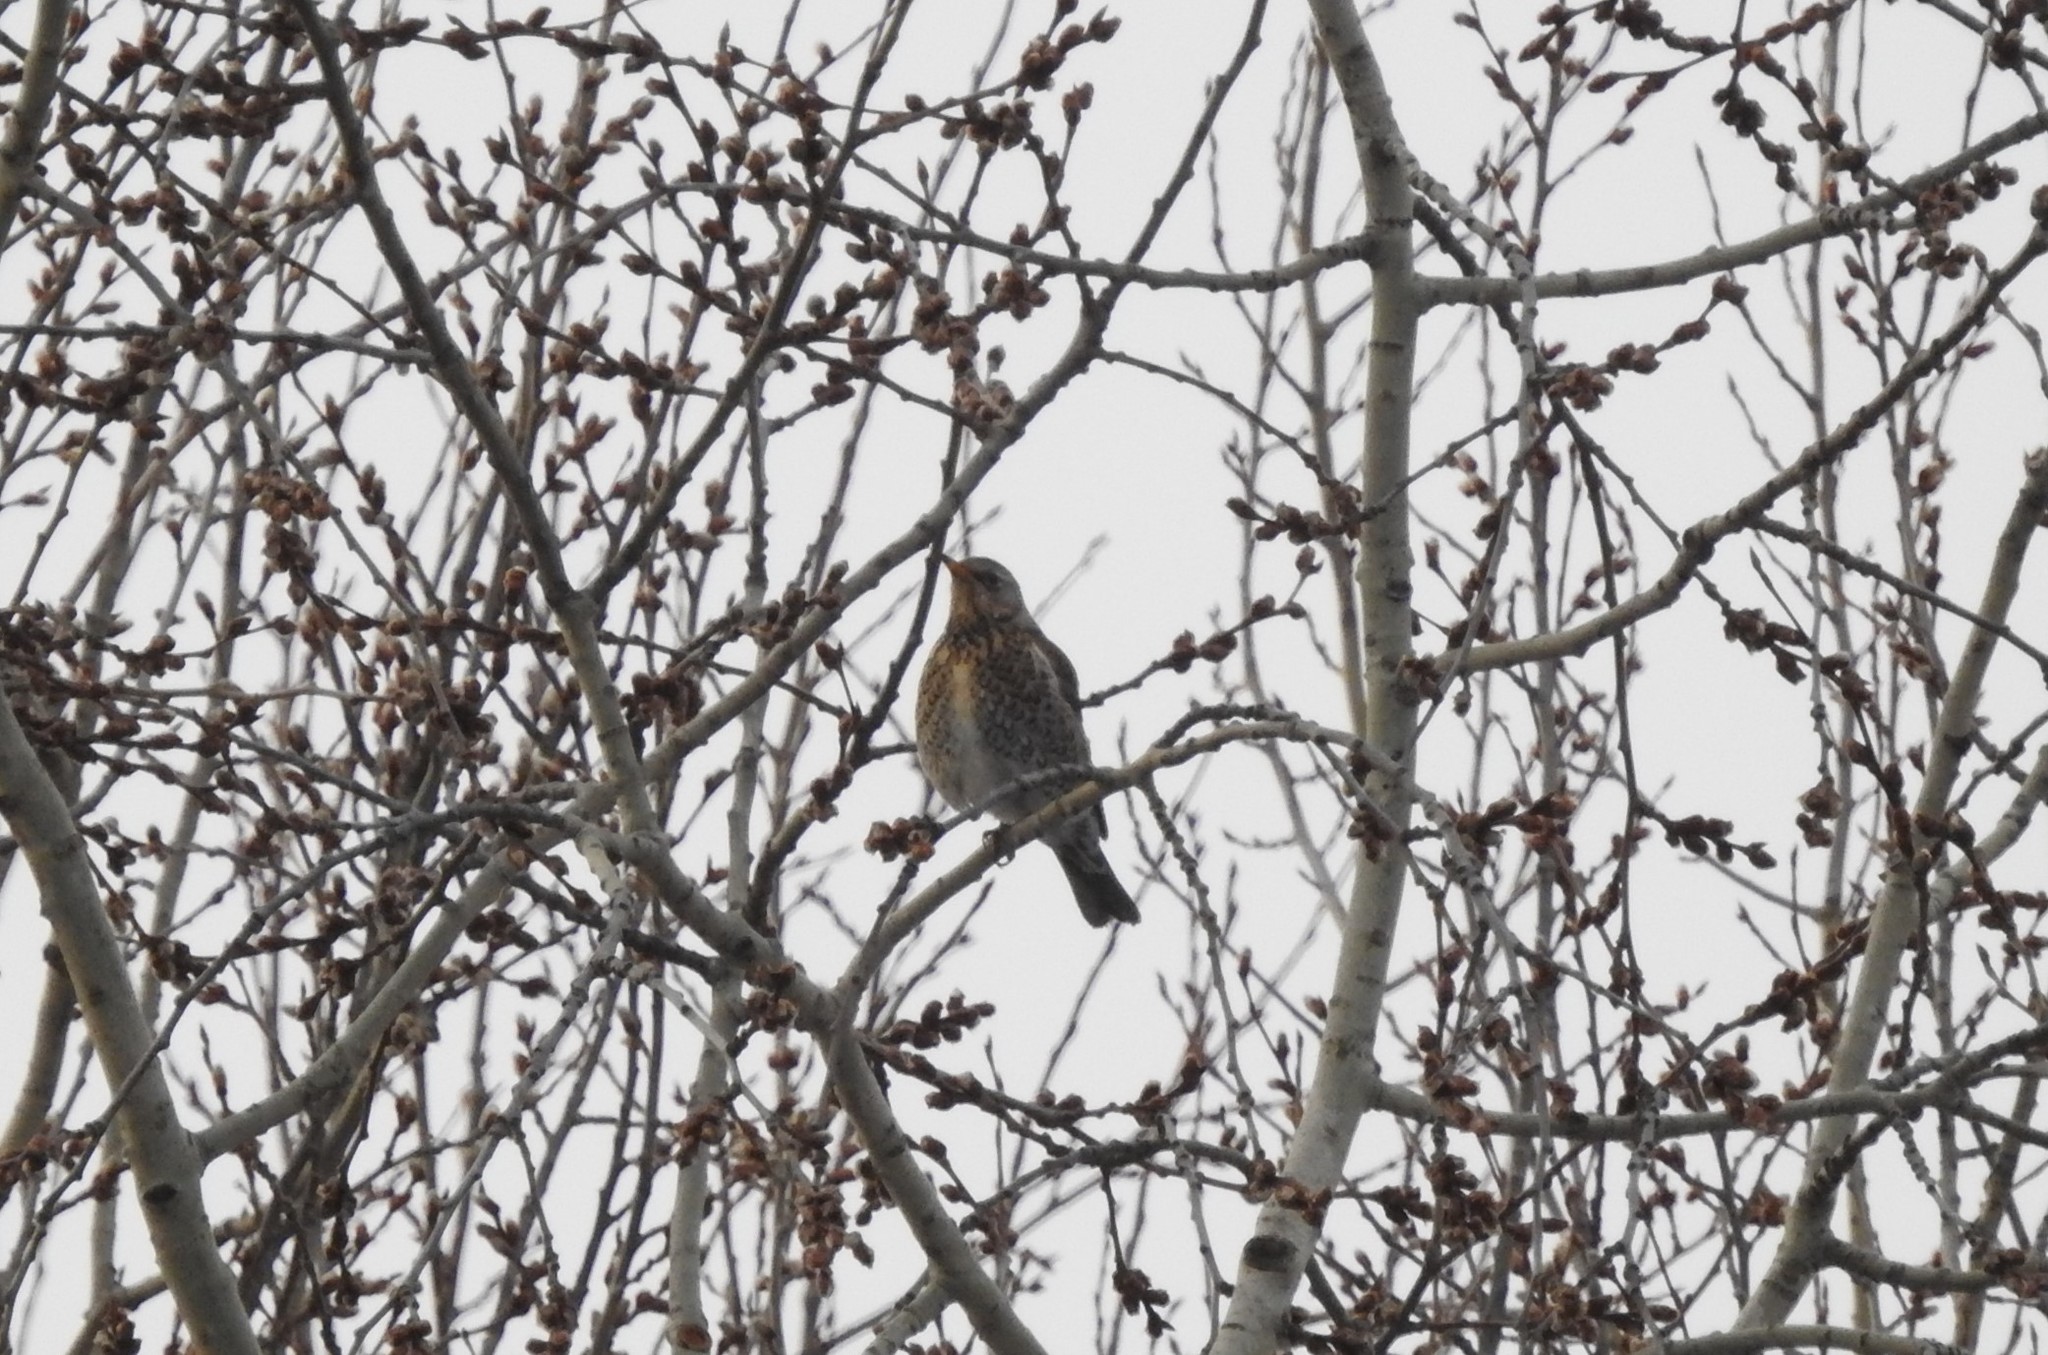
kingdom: Animalia
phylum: Chordata
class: Aves
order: Passeriformes
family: Turdidae
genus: Turdus
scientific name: Turdus pilaris
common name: Fieldfare
